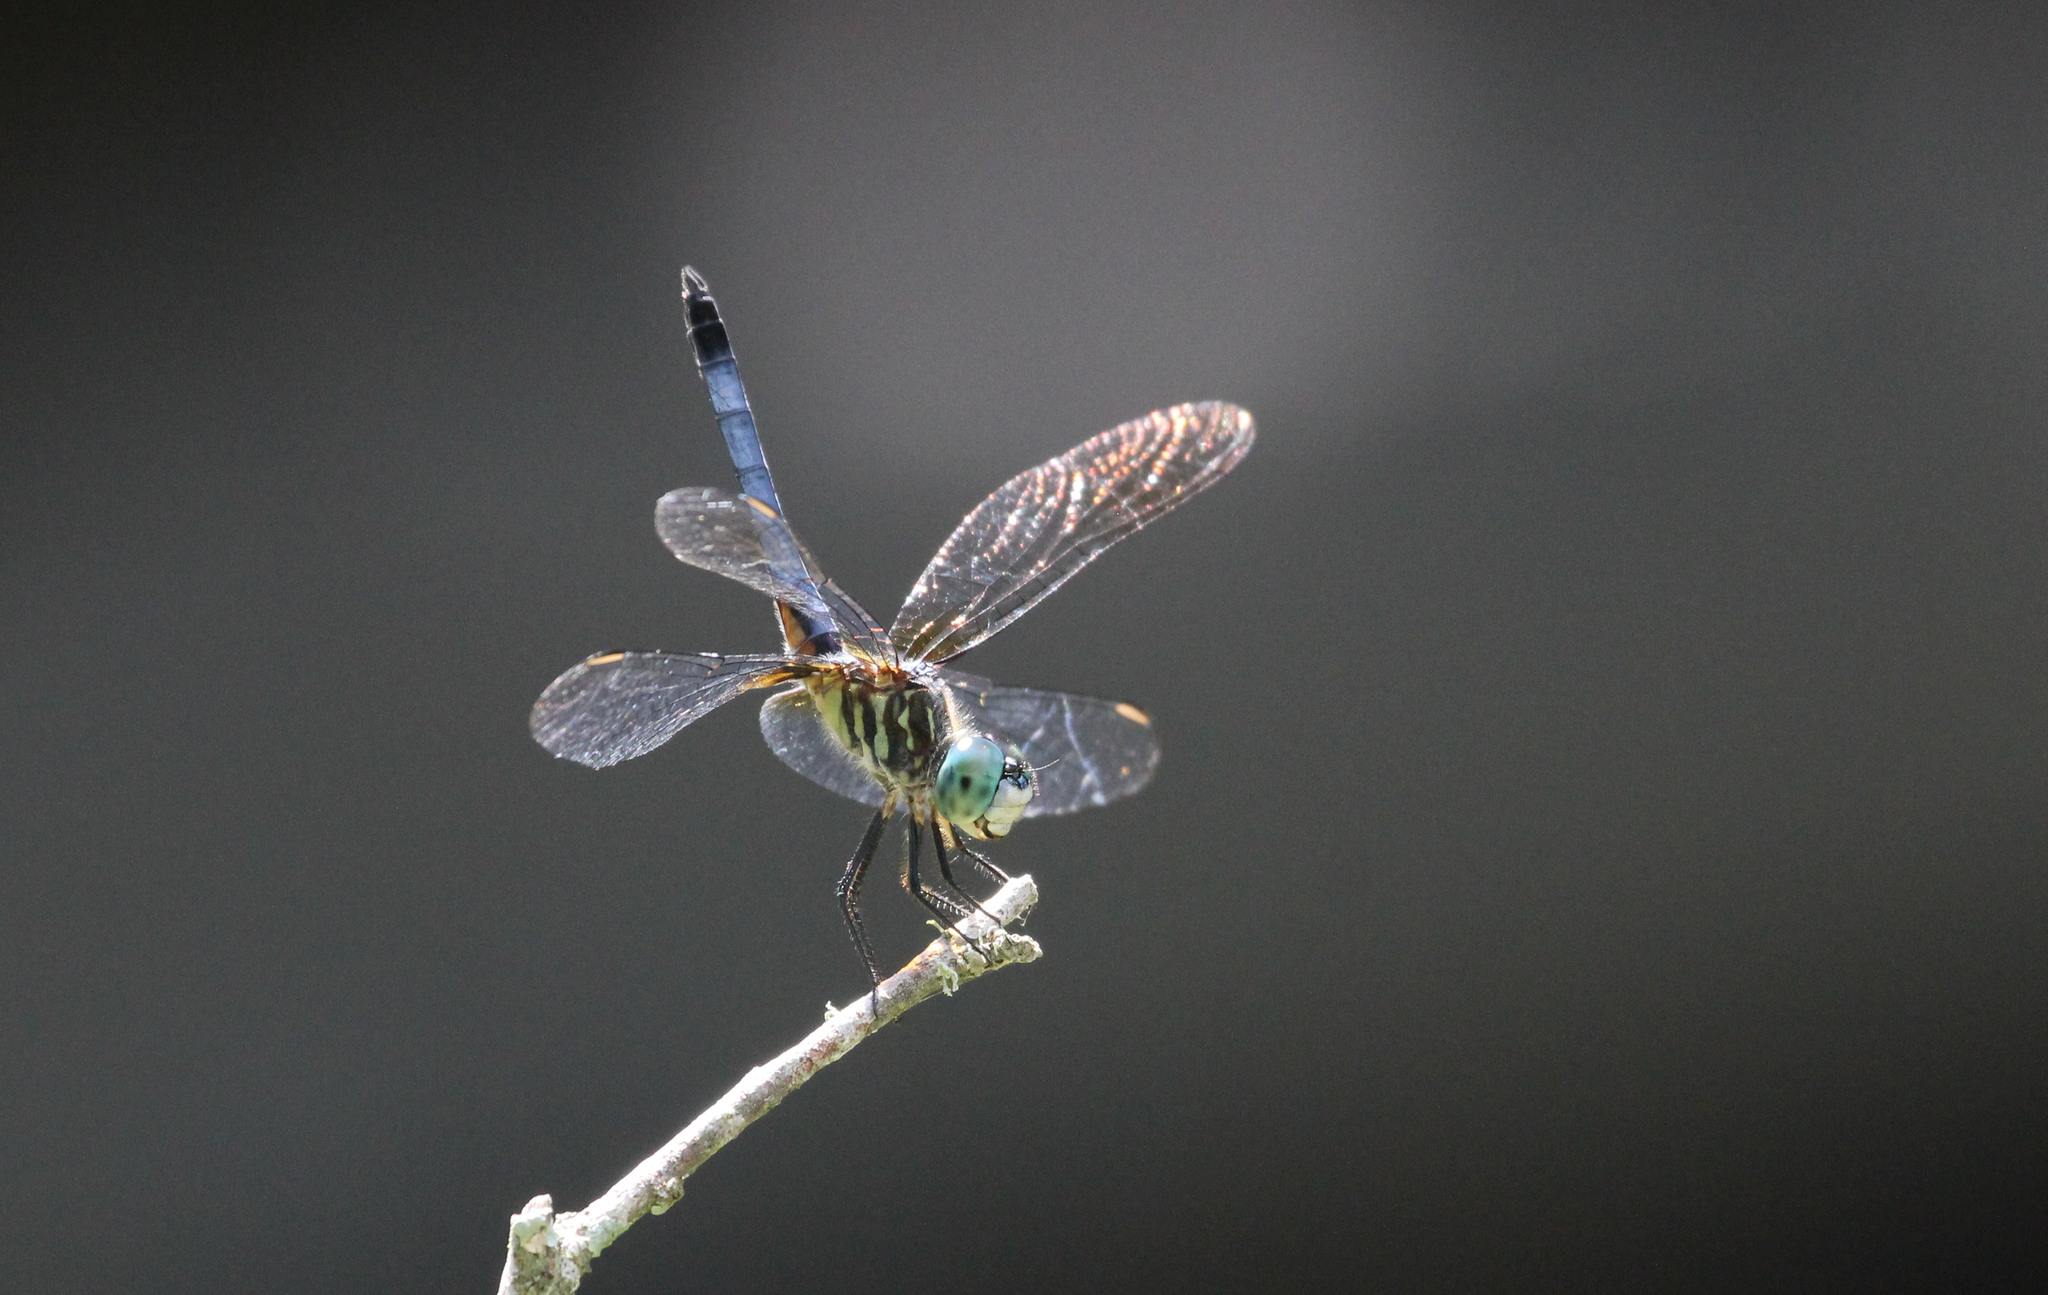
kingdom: Animalia
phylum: Arthropoda
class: Insecta
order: Odonata
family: Libellulidae
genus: Pachydiplax
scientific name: Pachydiplax longipennis
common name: Blue dasher
